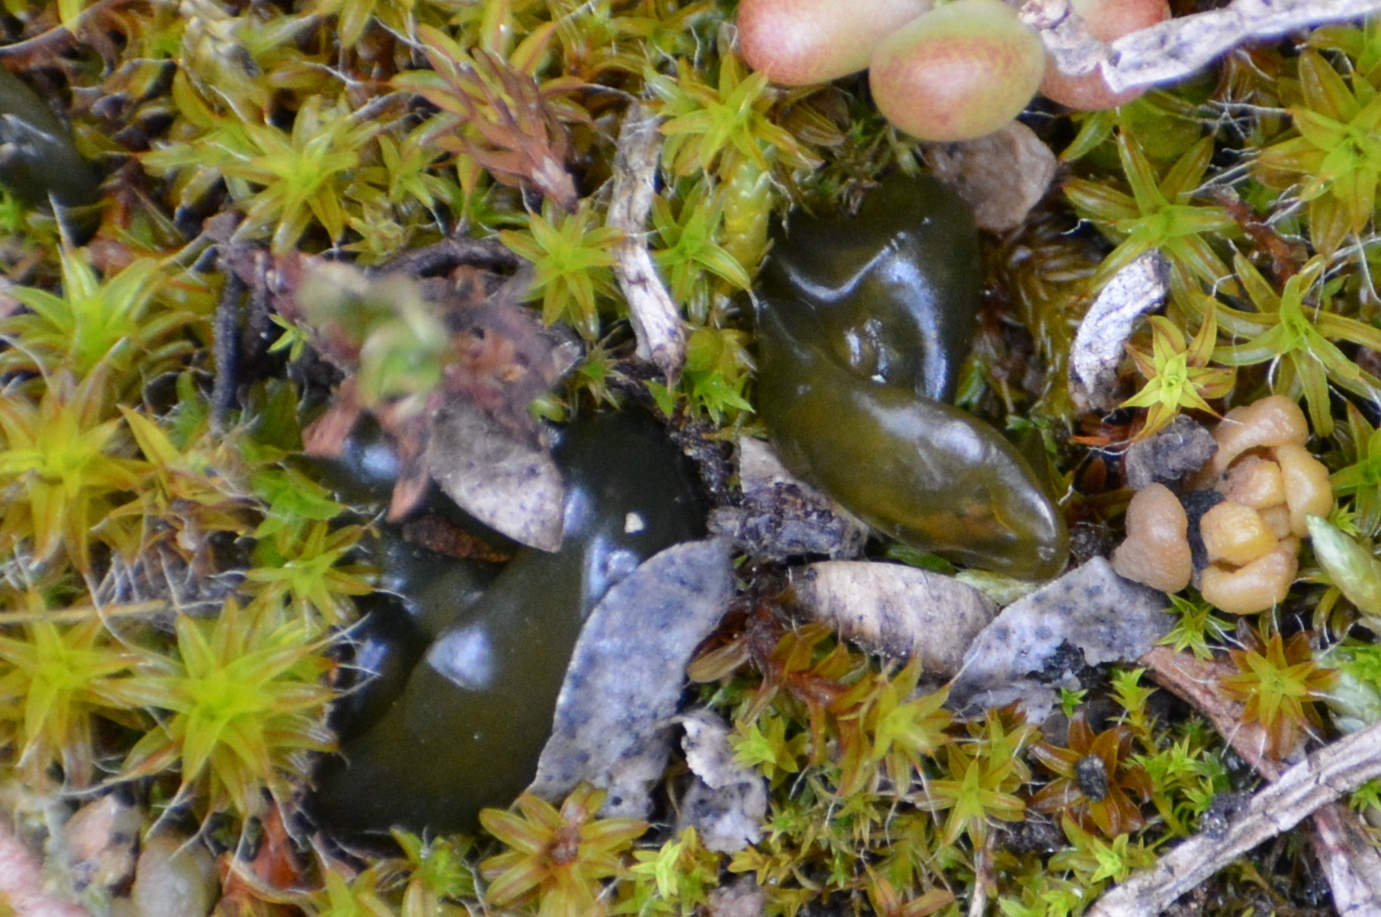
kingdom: Bacteria
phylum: Cyanobacteria
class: Cyanobacteriia
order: Cyanobacteriales
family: Nostocaceae
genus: Nostoc
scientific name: Nostoc commune
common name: Star jelly
